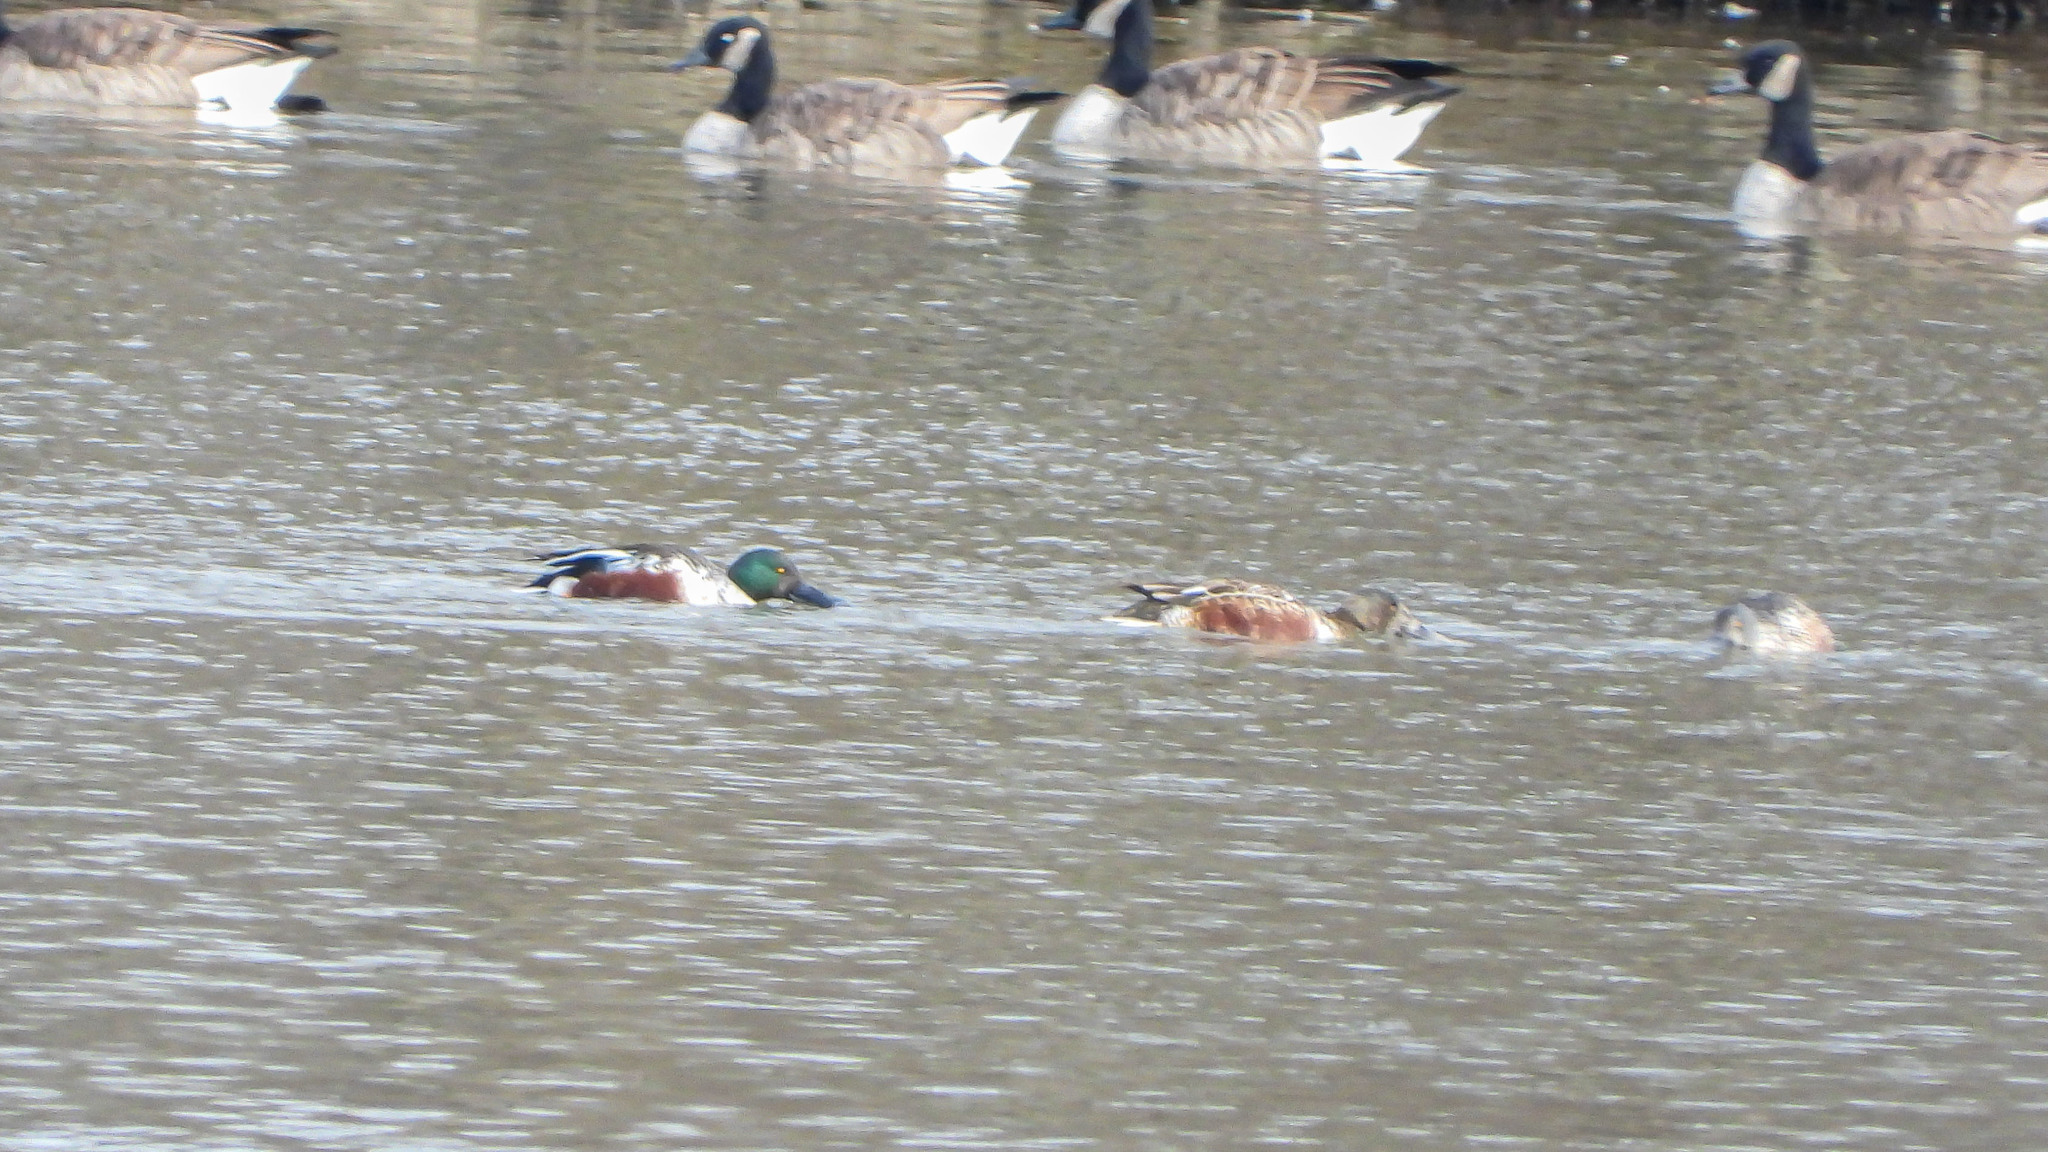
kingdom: Animalia
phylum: Chordata
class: Aves
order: Anseriformes
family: Anatidae
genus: Spatula
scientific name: Spatula clypeata
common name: Northern shoveler
